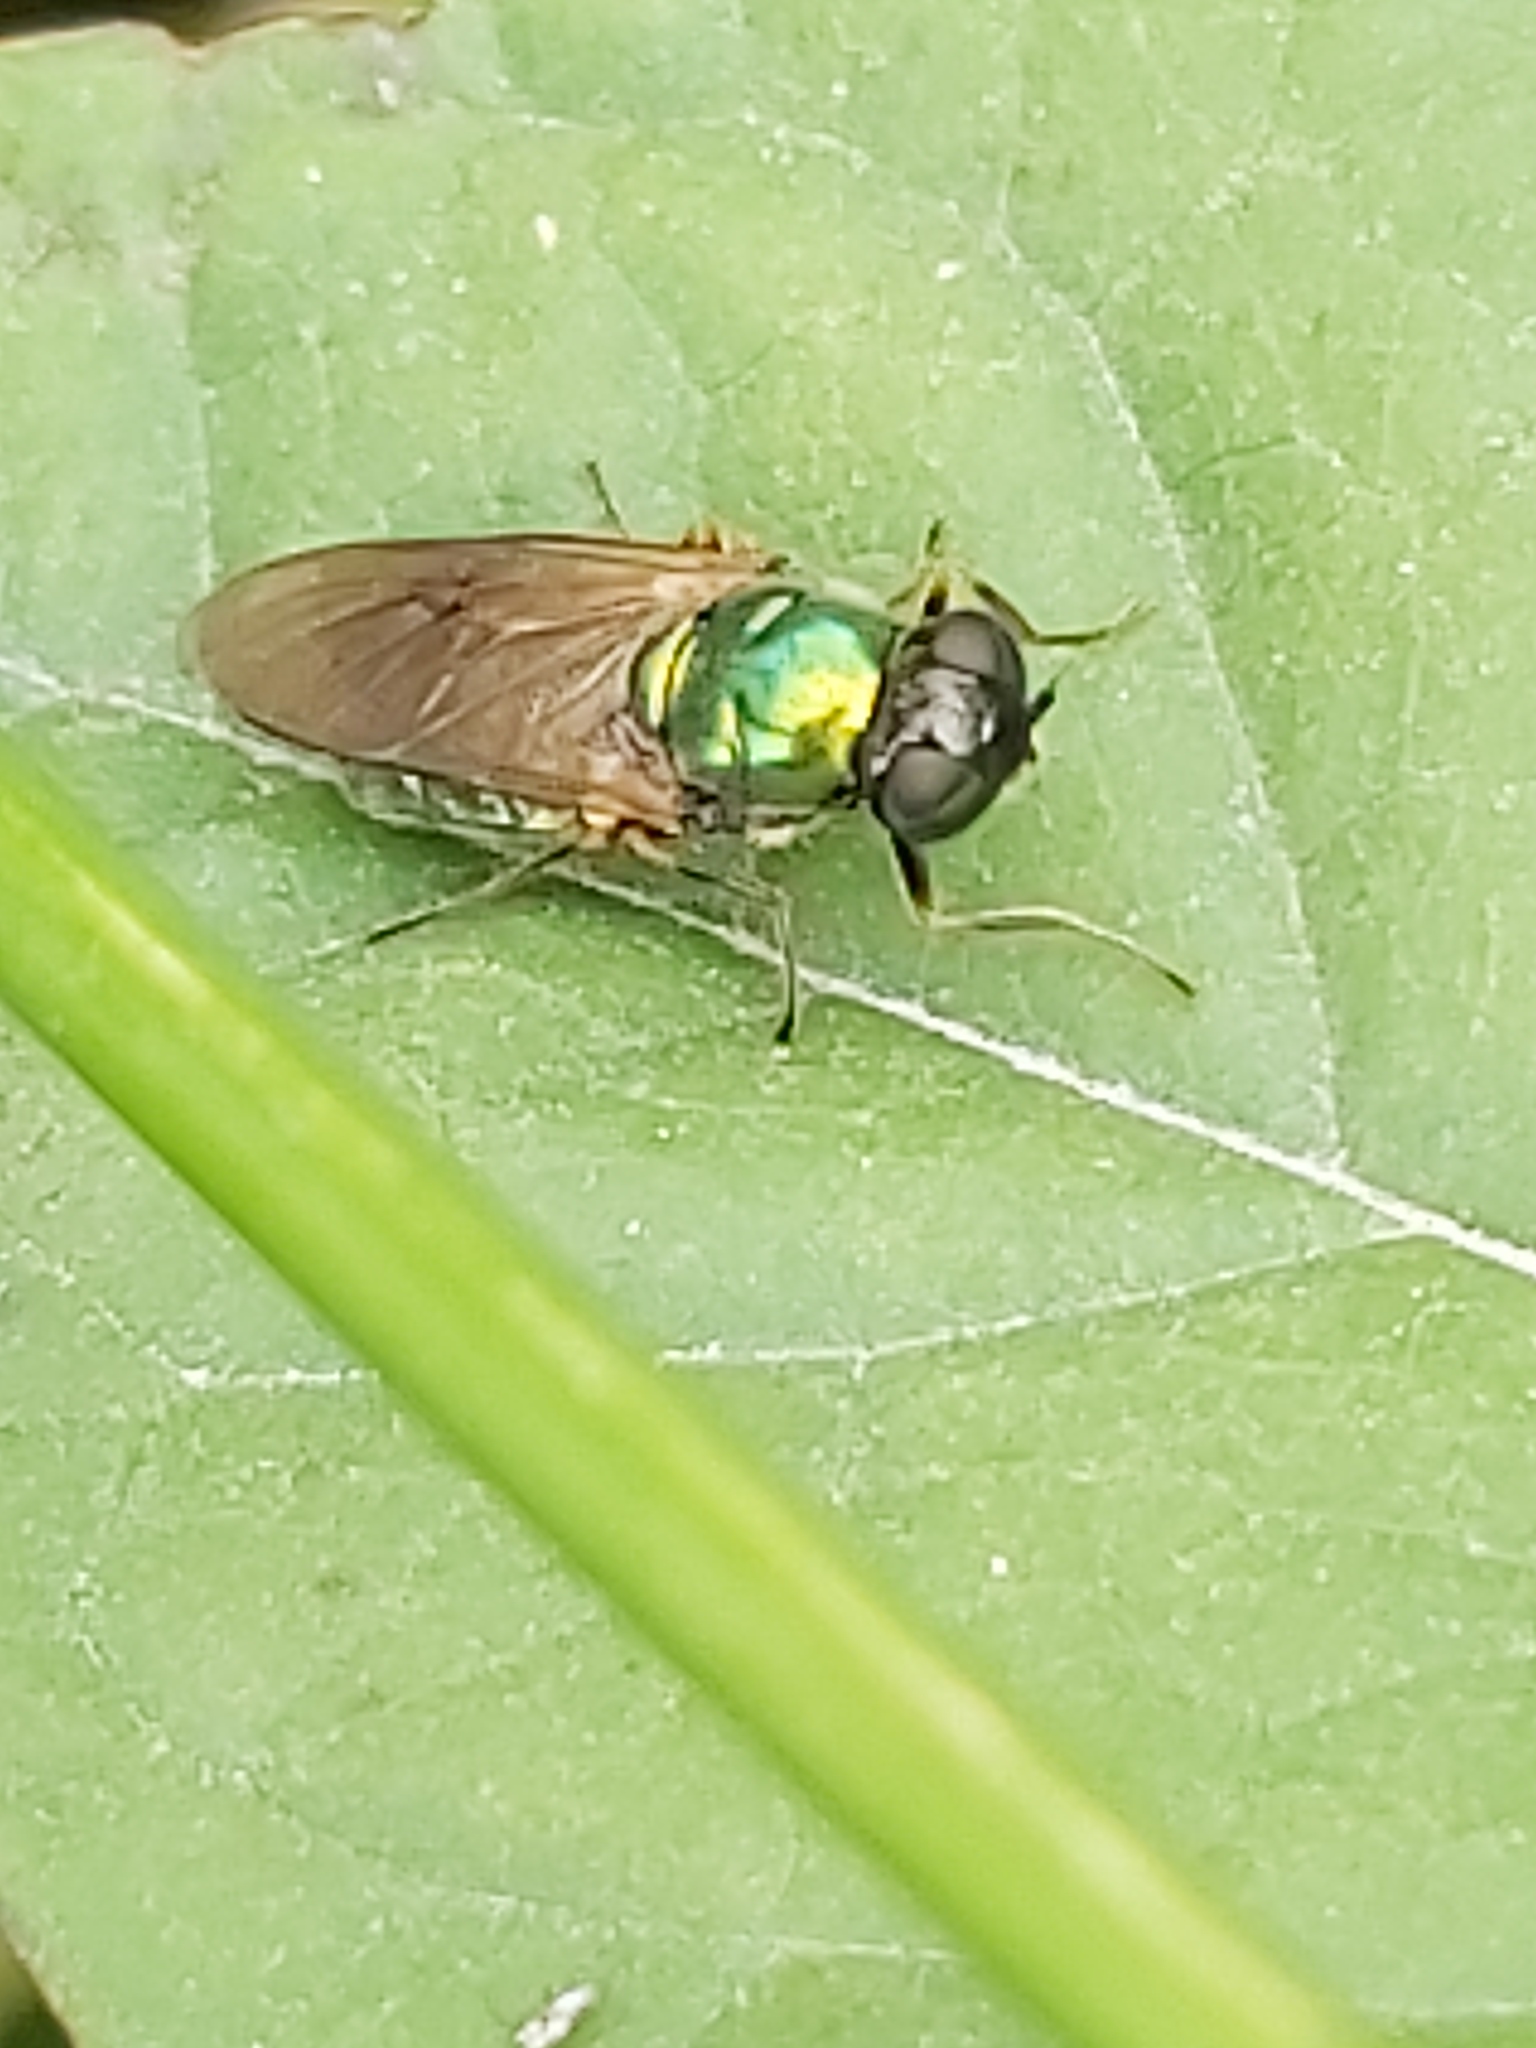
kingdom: Animalia
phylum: Arthropoda
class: Insecta
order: Diptera
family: Stratiomyidae
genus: Chloromyia
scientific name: Chloromyia formosa
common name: Soldier fly
